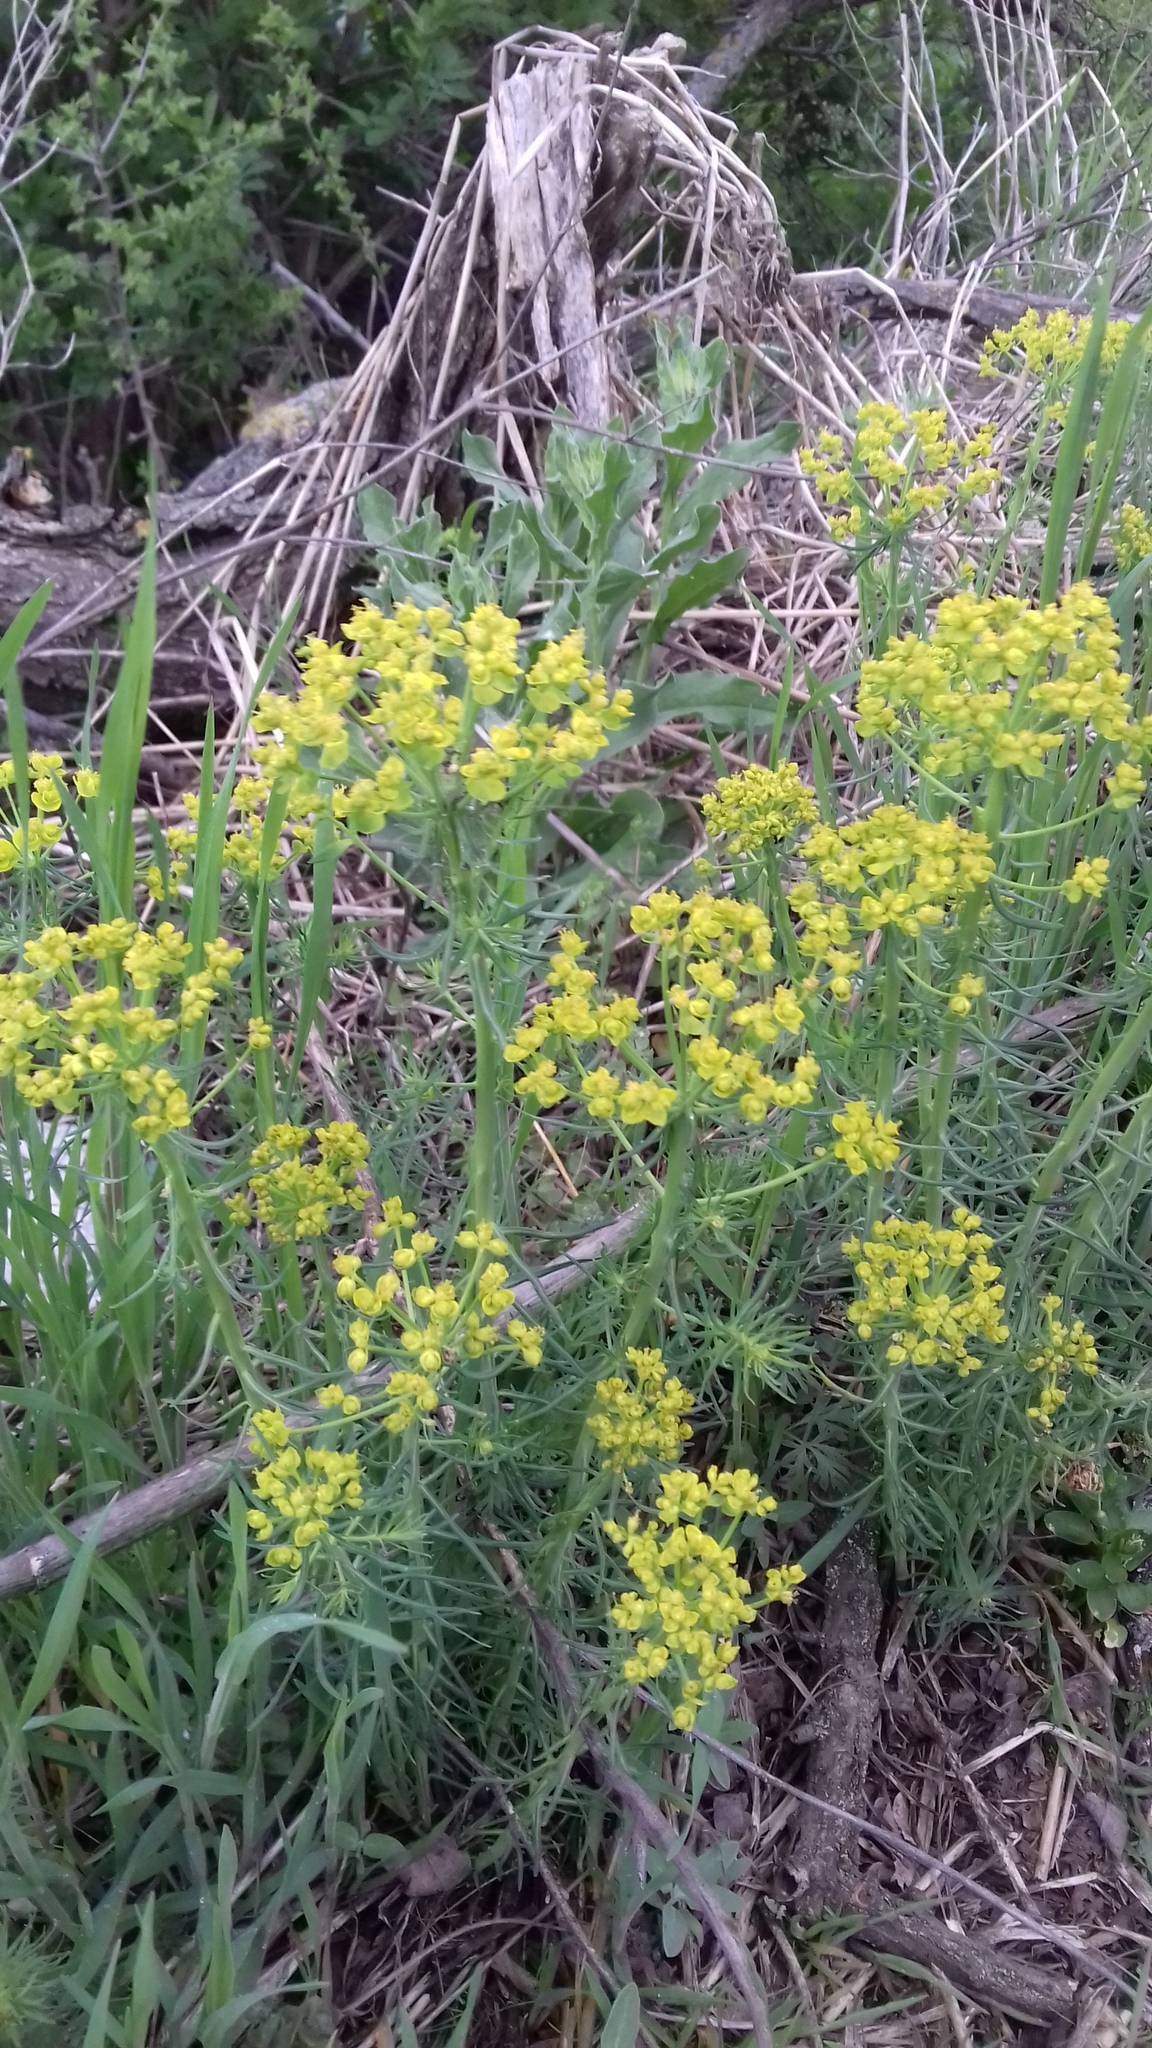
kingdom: Plantae
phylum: Tracheophyta
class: Magnoliopsida
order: Malpighiales
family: Euphorbiaceae
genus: Euphorbia
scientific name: Euphorbia cyparissias
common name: Cypress spurge
